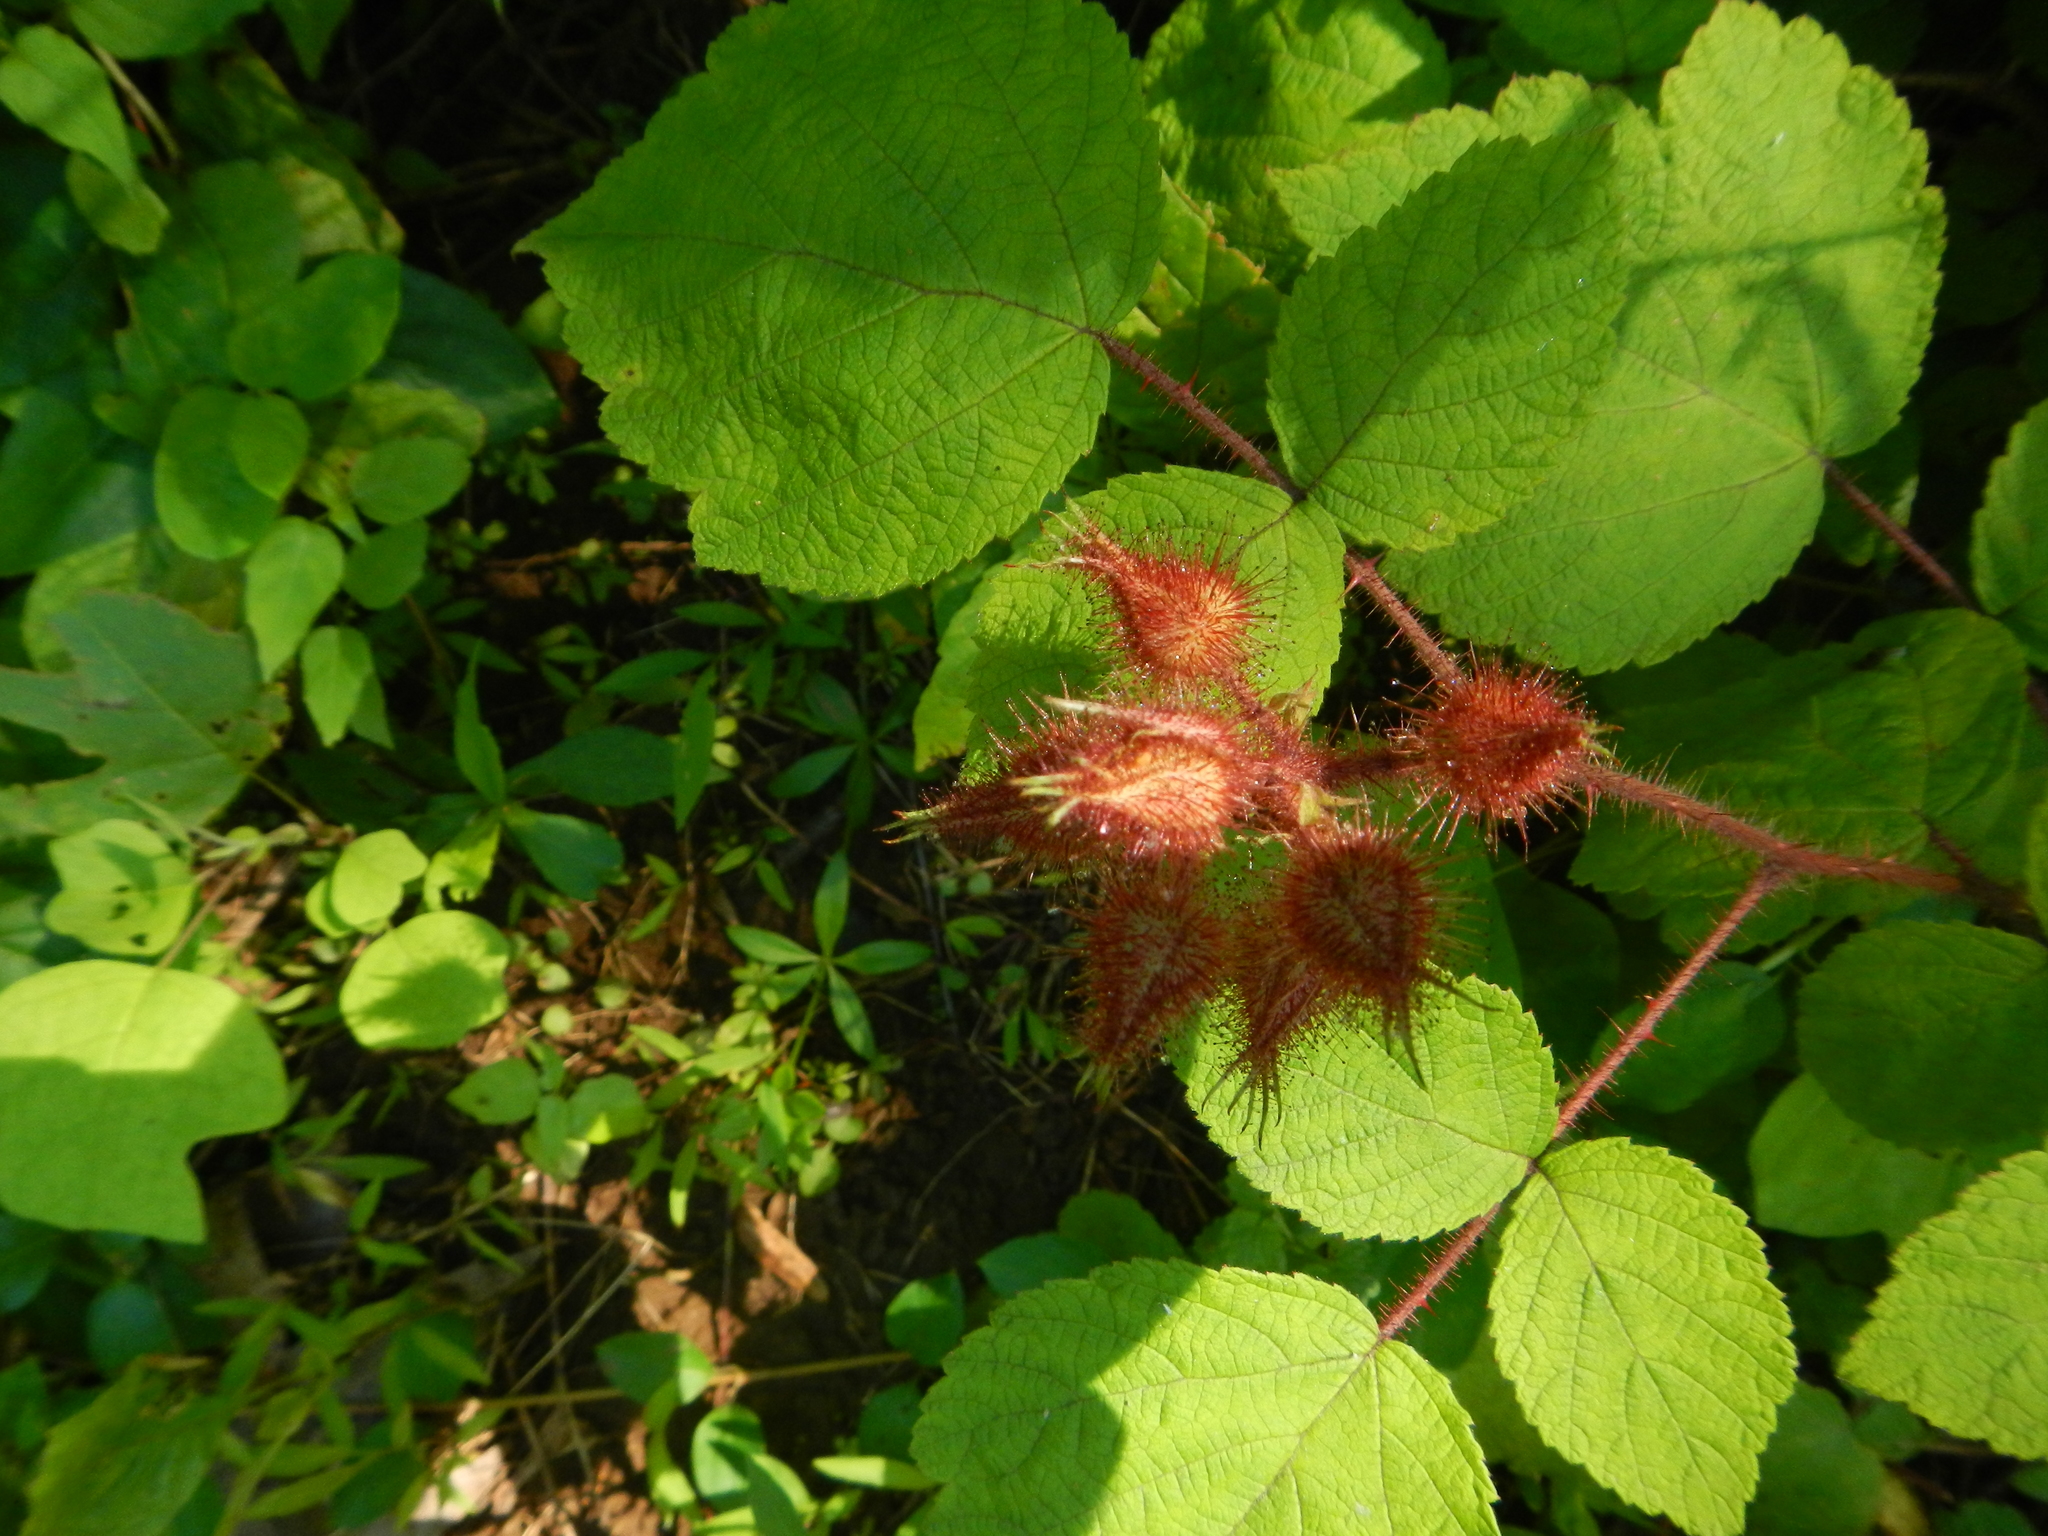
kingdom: Plantae
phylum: Tracheophyta
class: Magnoliopsida
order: Rosales
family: Rosaceae
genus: Rubus
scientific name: Rubus phoenicolasius
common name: Japanese wineberry
